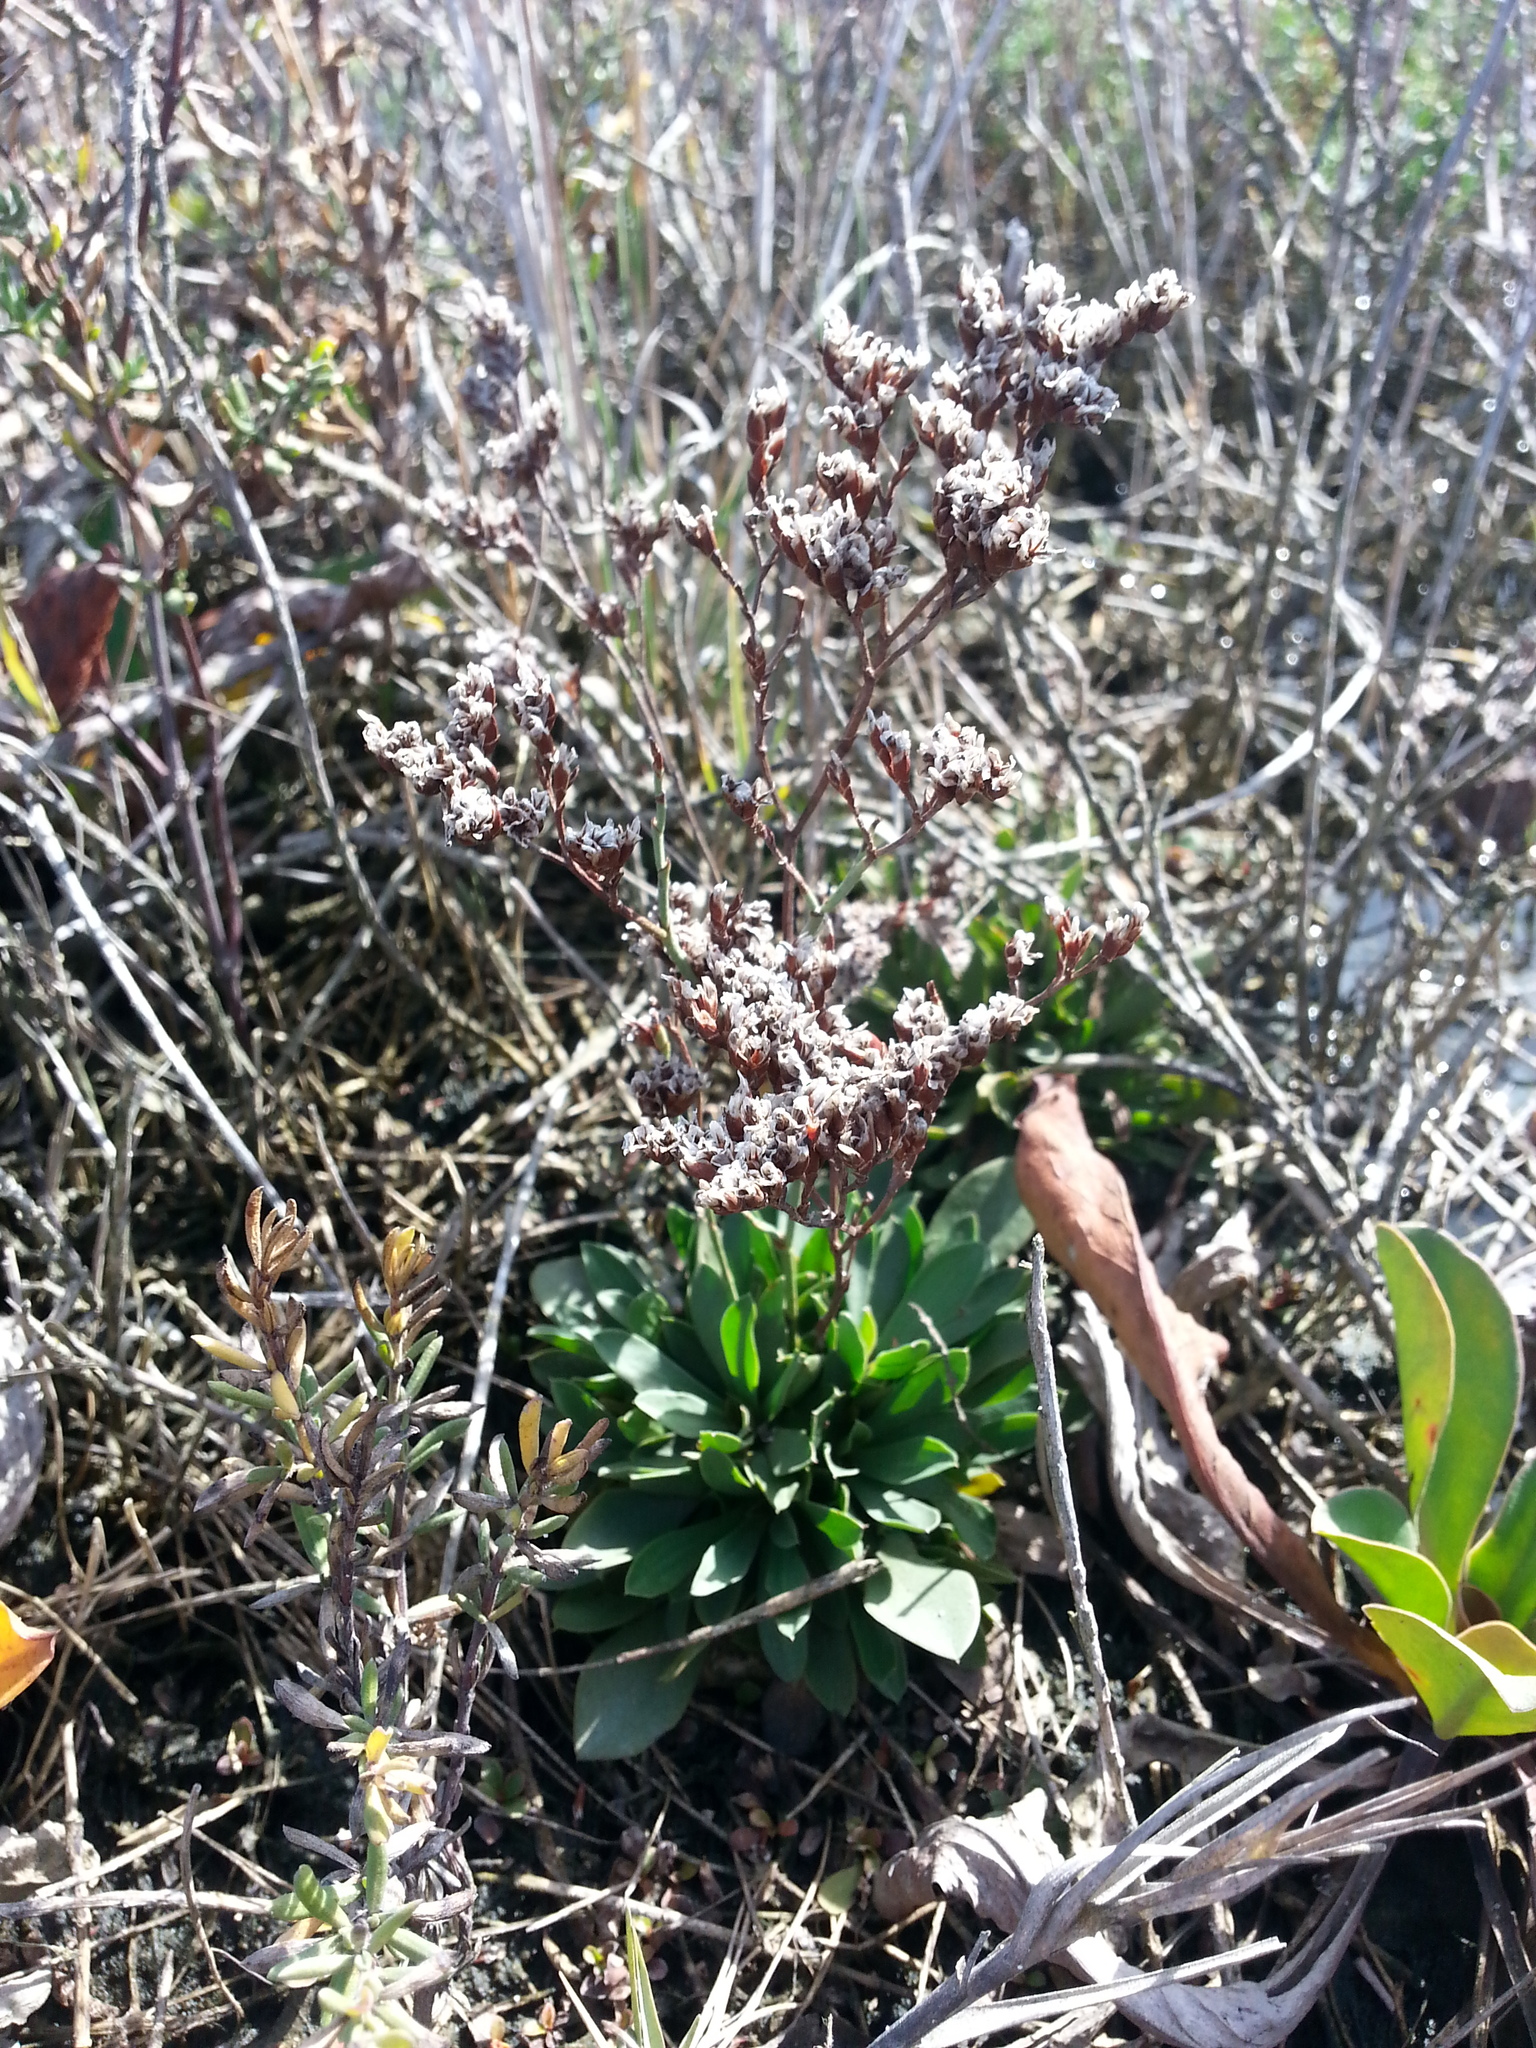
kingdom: Plantae
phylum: Tracheophyta
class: Magnoliopsida
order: Caryophyllales
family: Plumbaginaceae
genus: Limonium
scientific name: Limonium ramosissimum
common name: Algerian sea lavender
